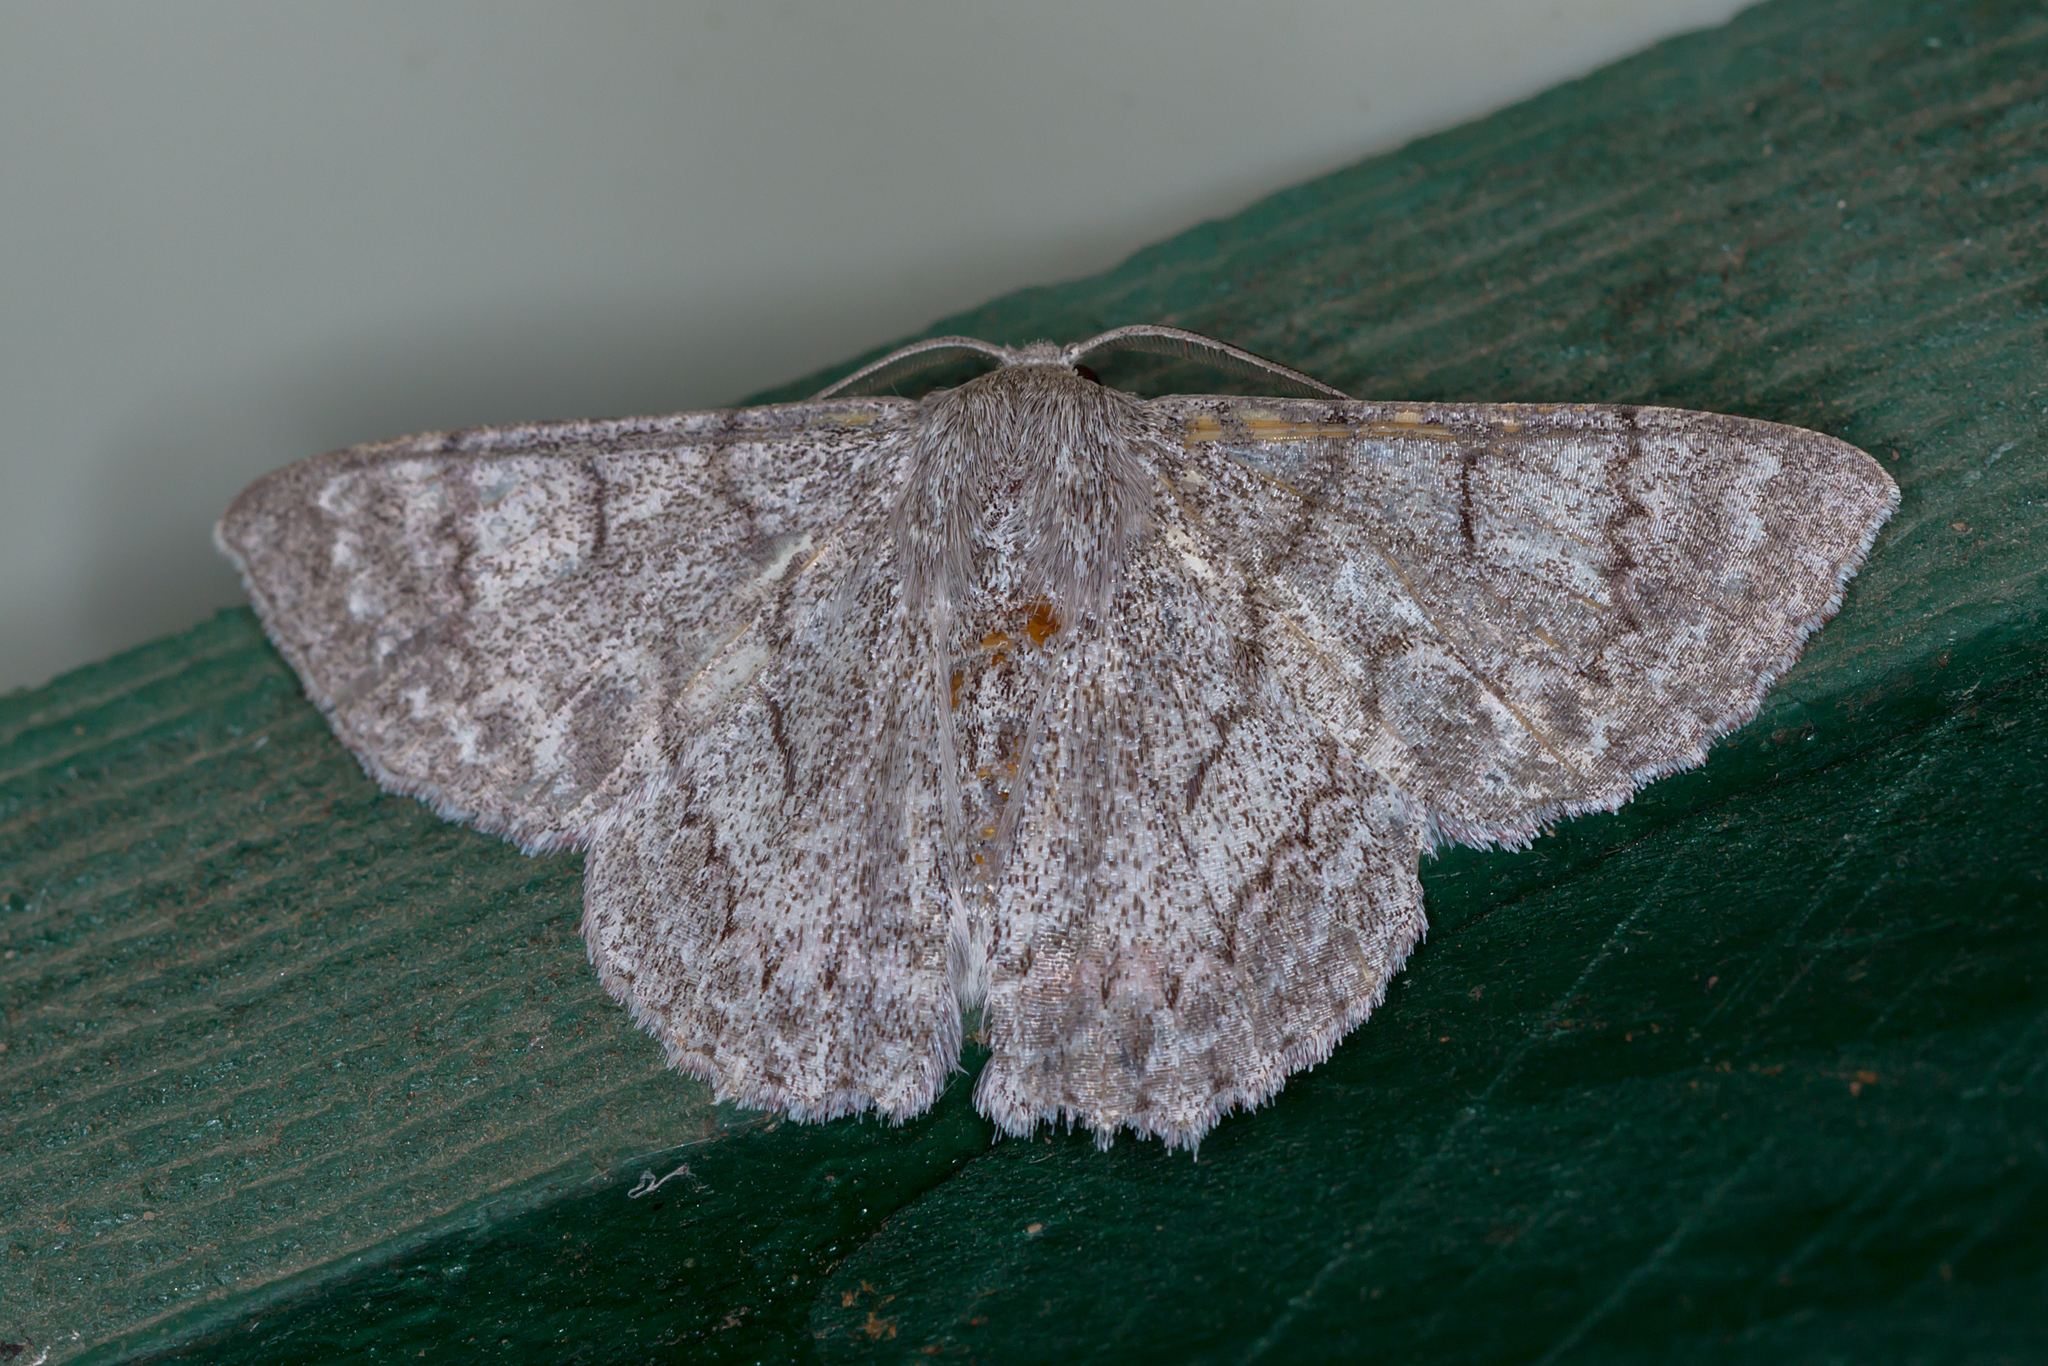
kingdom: Animalia
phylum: Arthropoda
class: Insecta
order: Lepidoptera
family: Geometridae
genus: Crypsiphona
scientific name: Crypsiphona ocultaria
